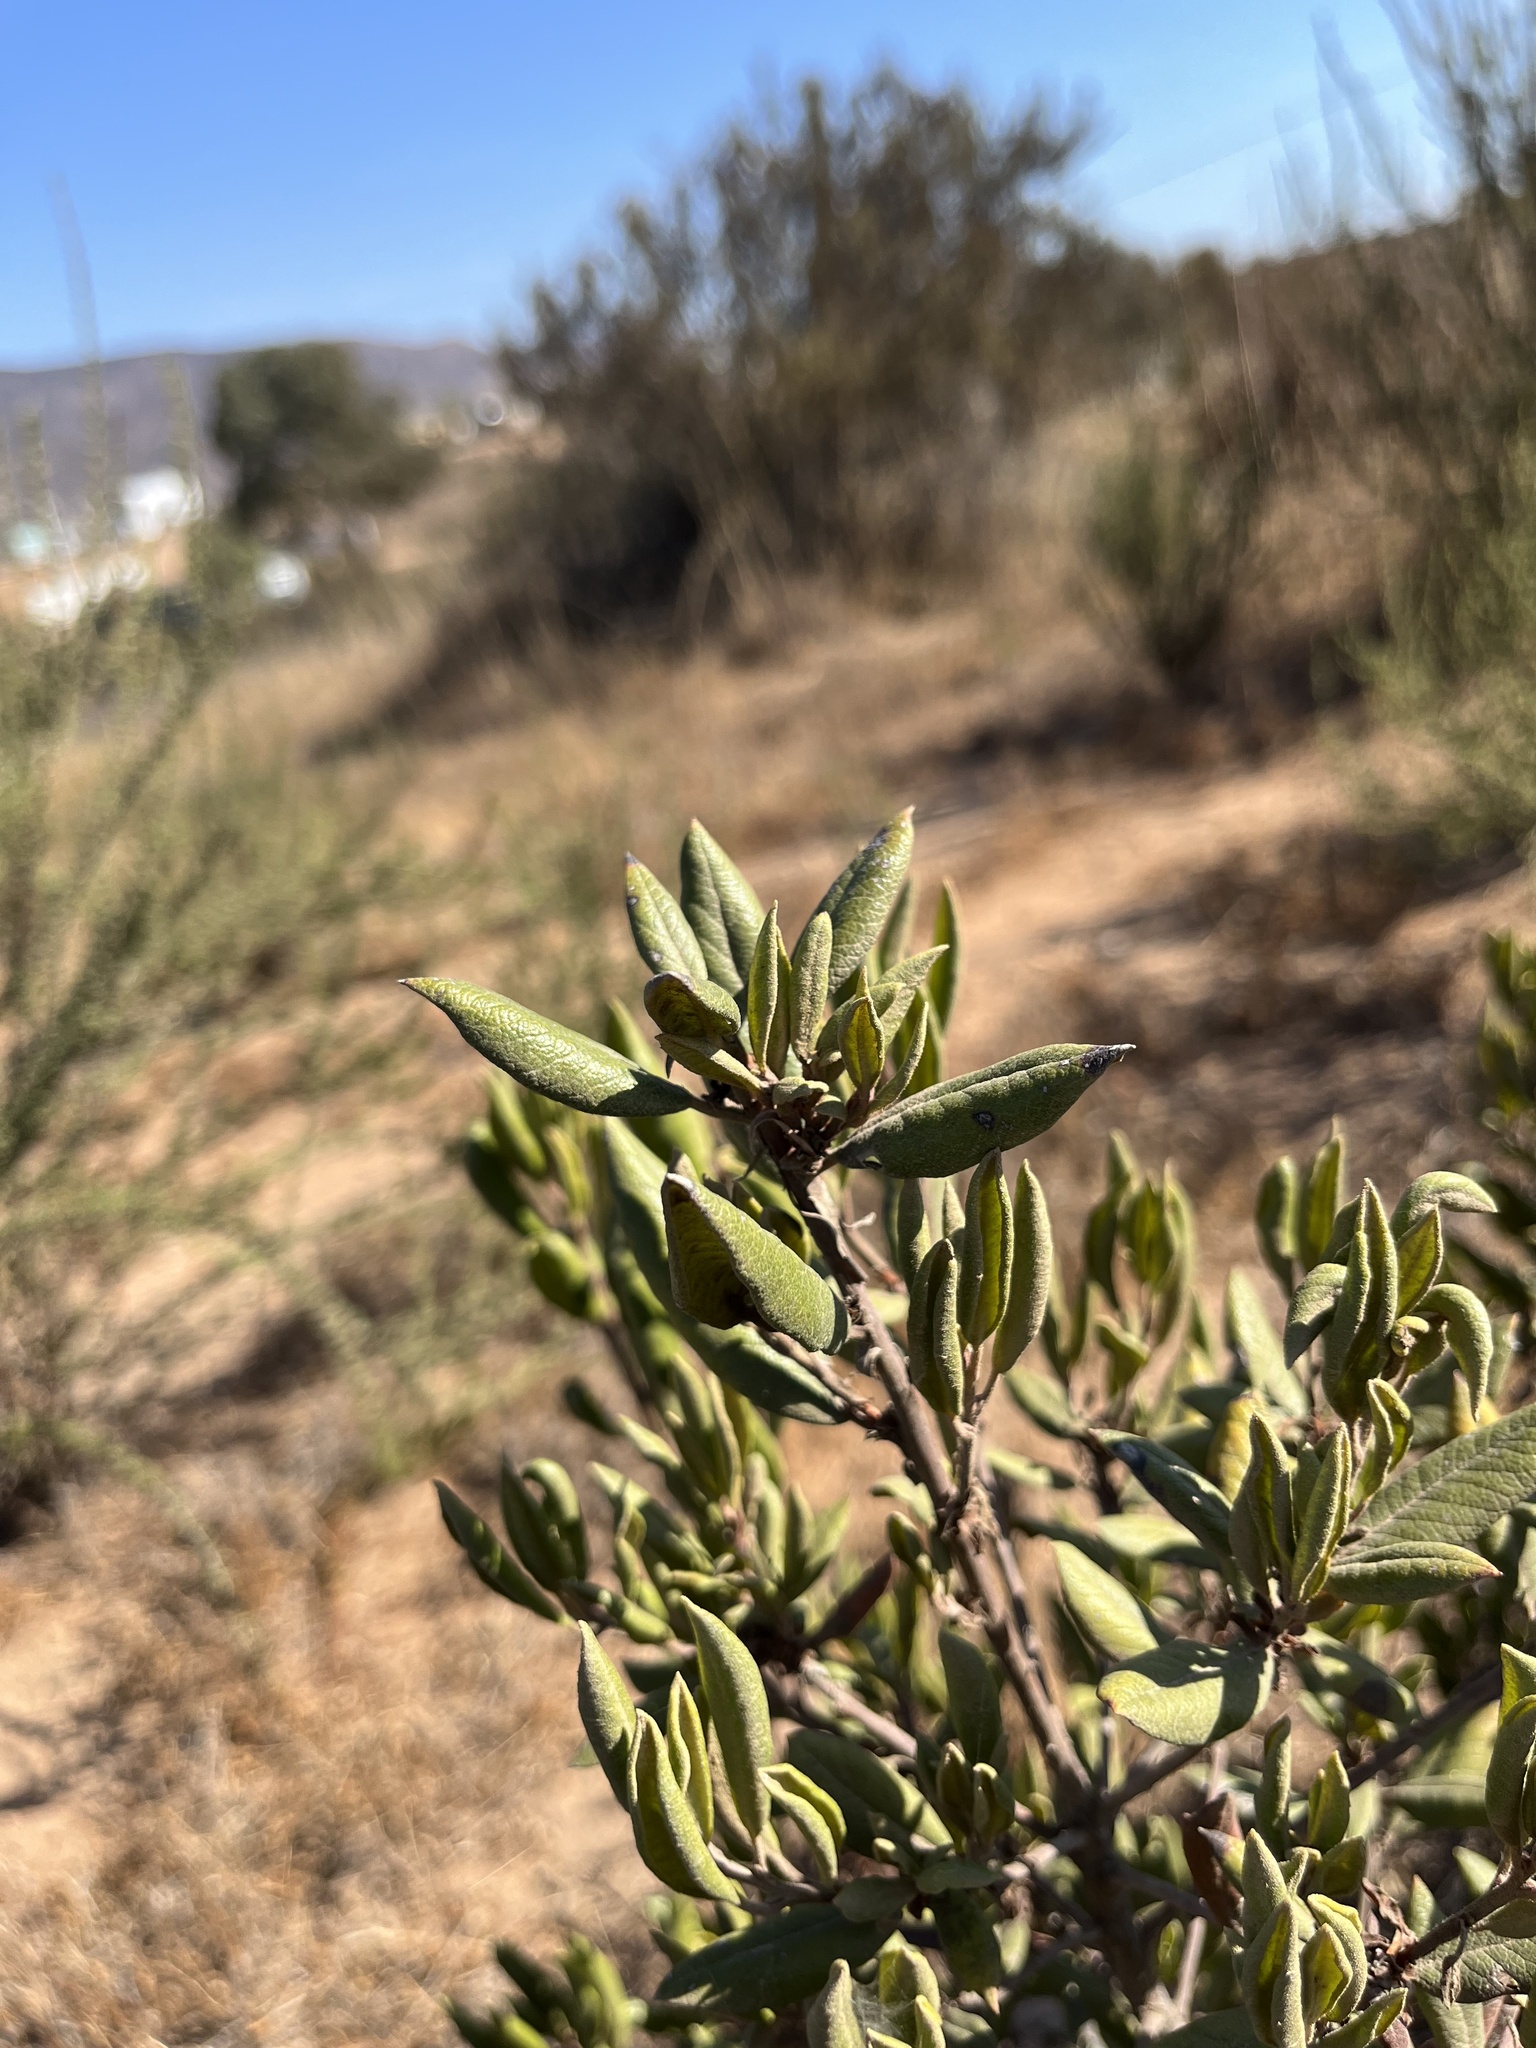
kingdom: Plantae
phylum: Tracheophyta
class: Magnoliopsida
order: Ericales
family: Ericaceae
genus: Arctostaphylos
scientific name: Arctostaphylos bicolor
